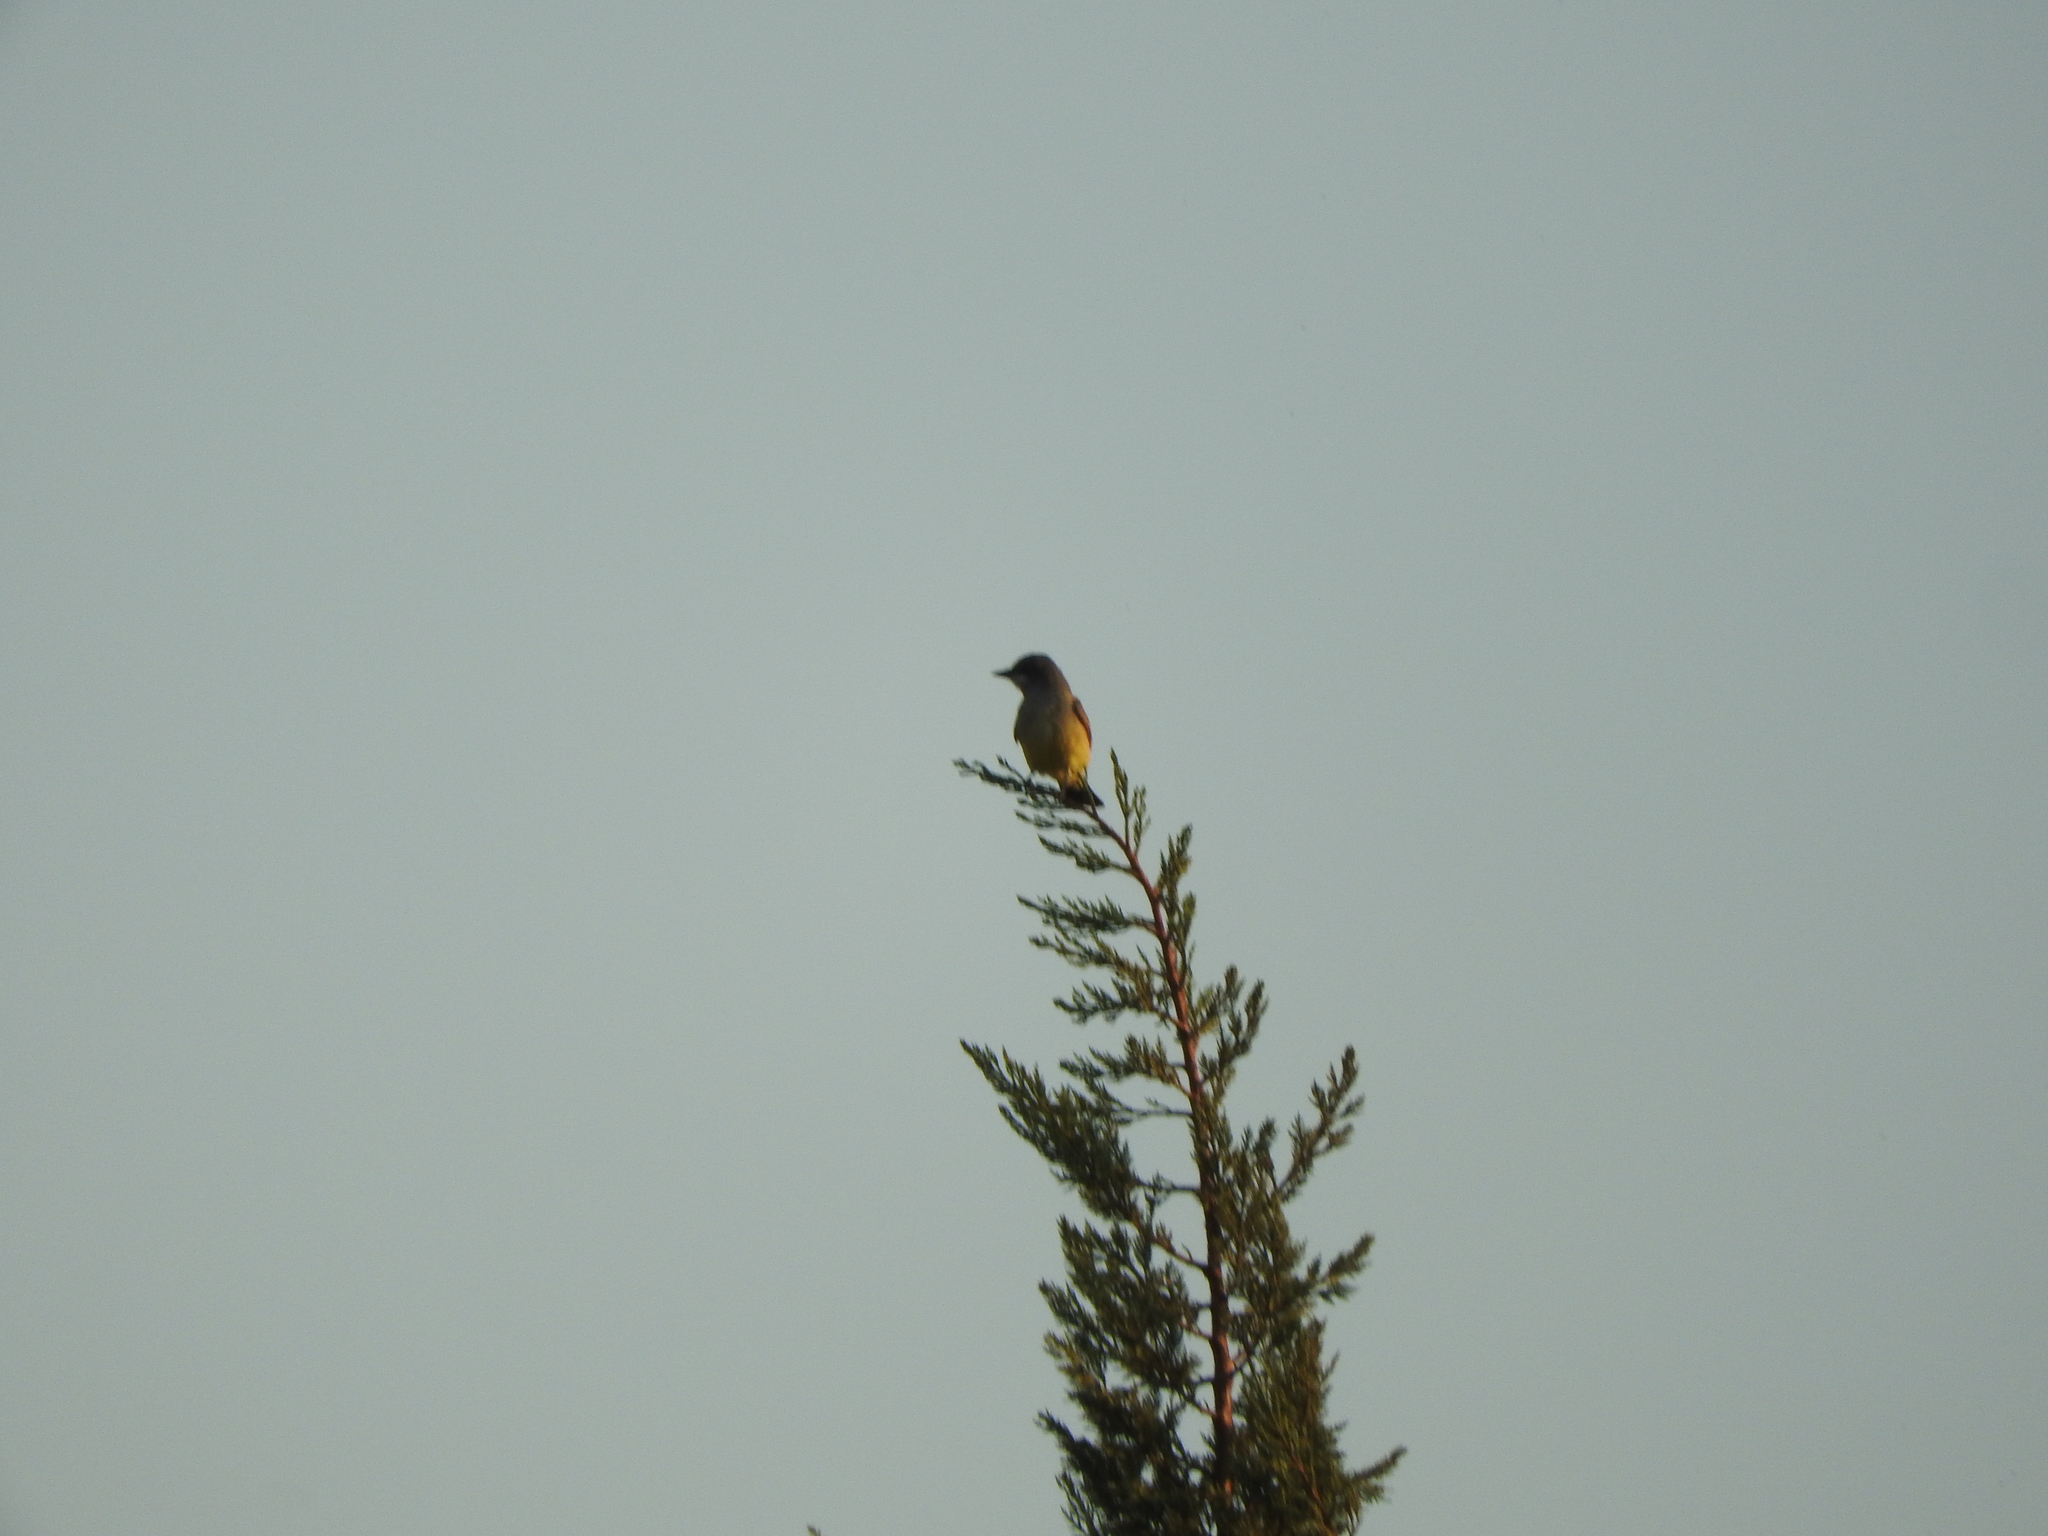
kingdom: Animalia
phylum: Chordata
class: Aves
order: Passeriformes
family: Tyrannidae
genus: Tyrannus
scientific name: Tyrannus vociferans
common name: Cassin's kingbird
